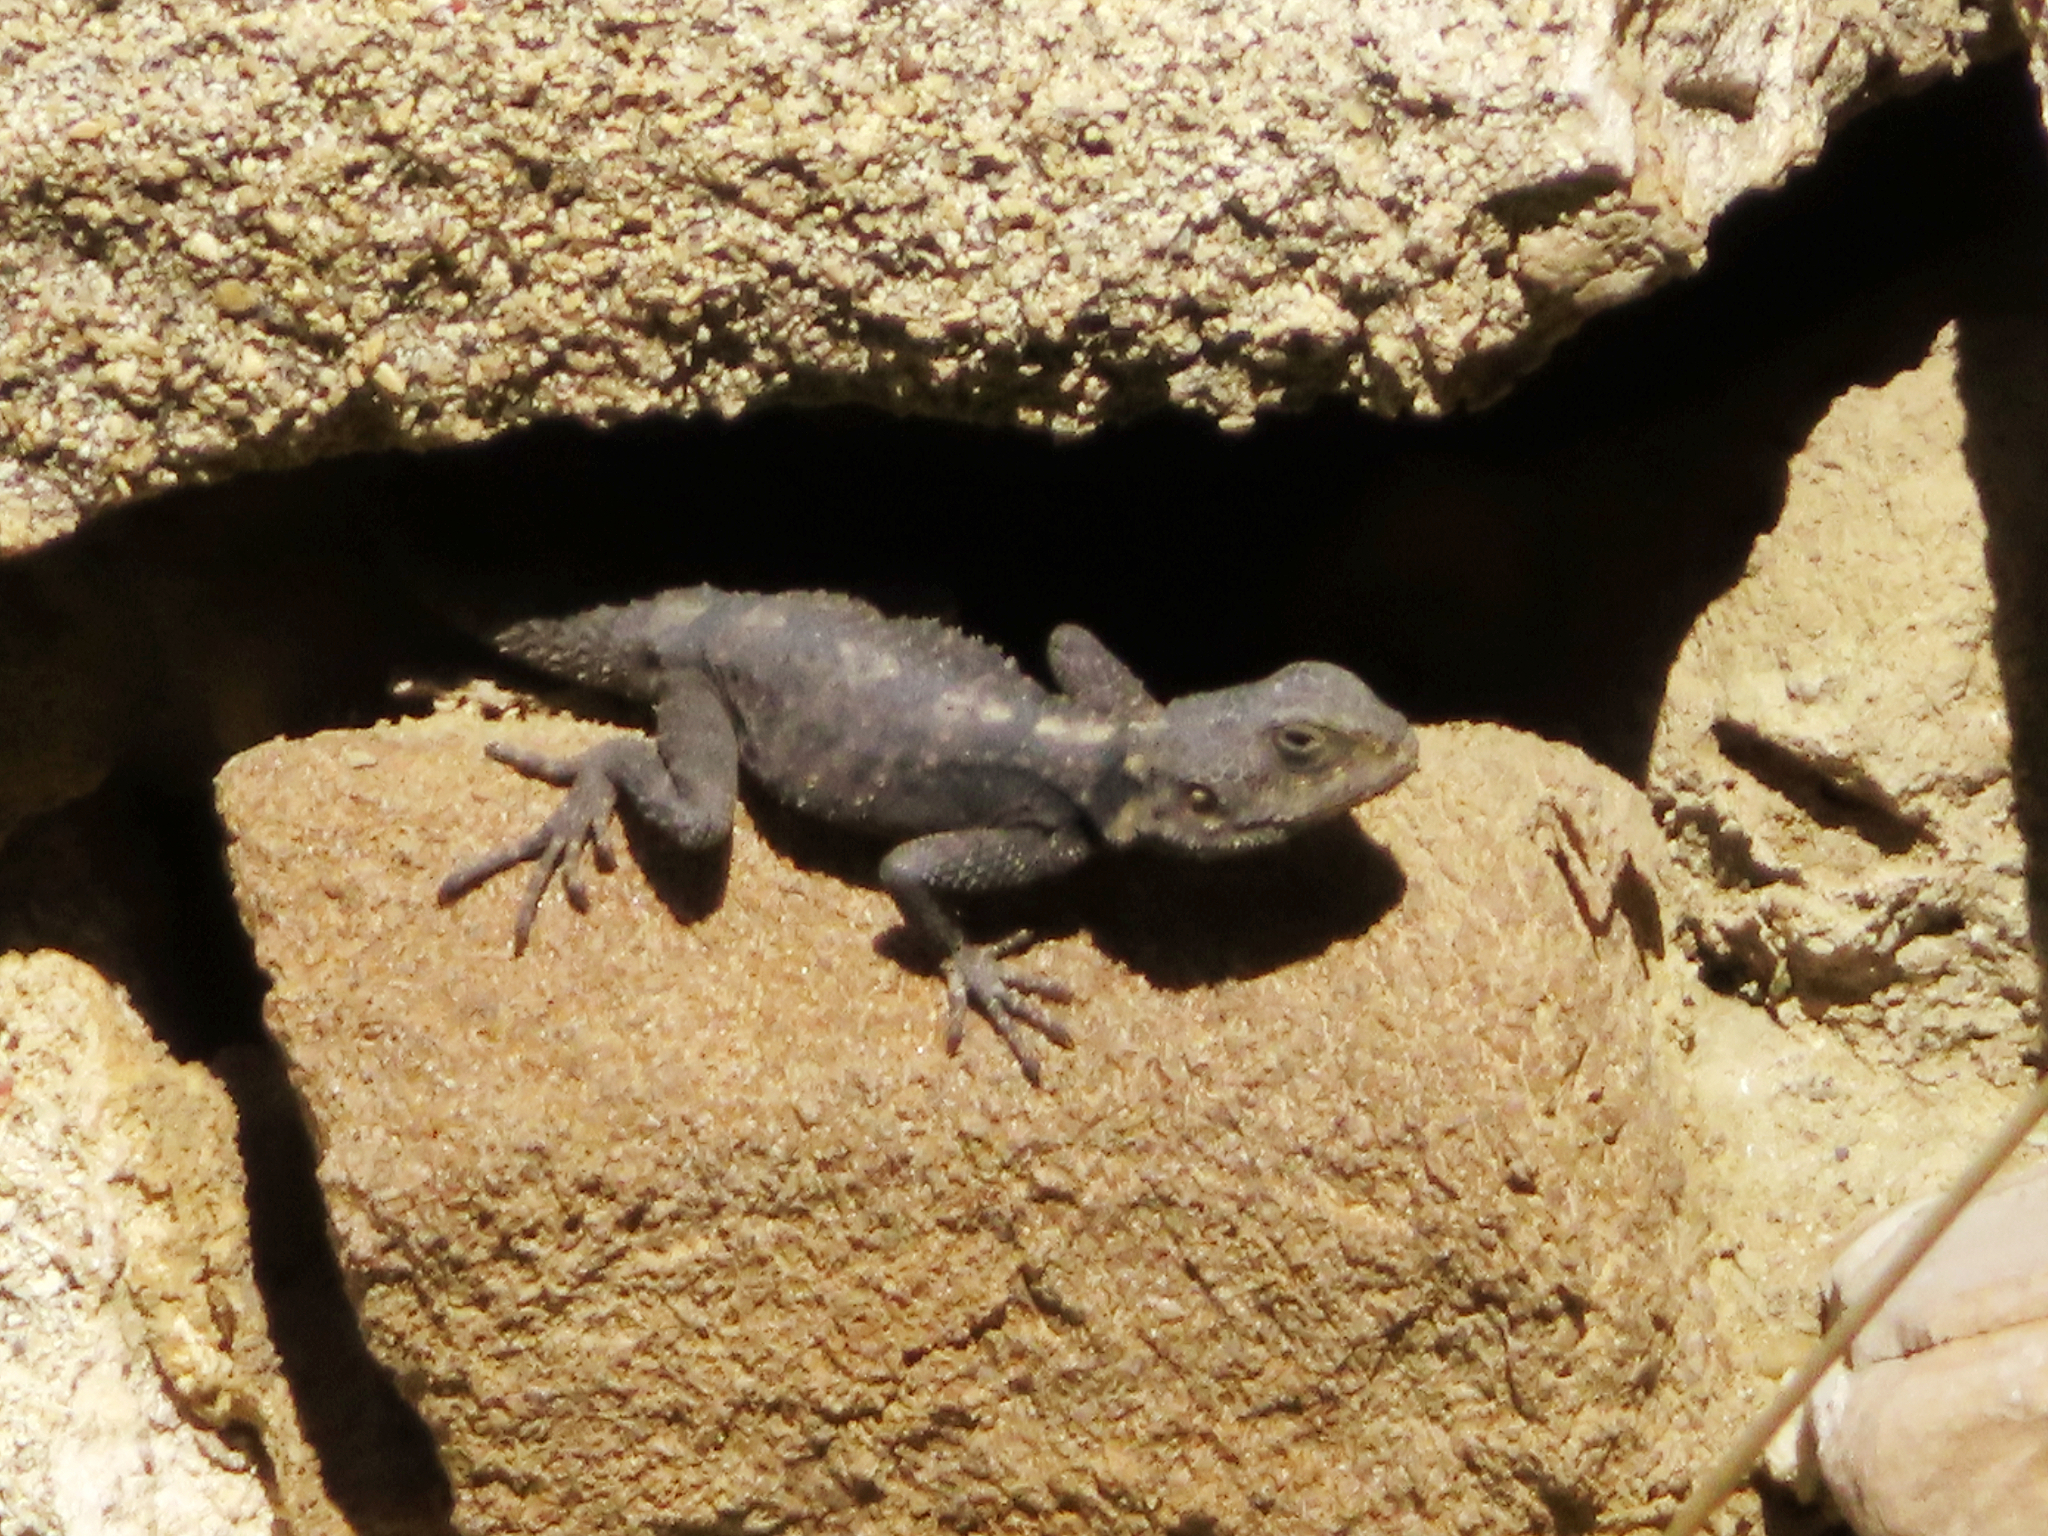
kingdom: Animalia
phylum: Chordata
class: Squamata
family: Agamidae
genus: Stellagama
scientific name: Stellagama stellio
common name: Starred agama
